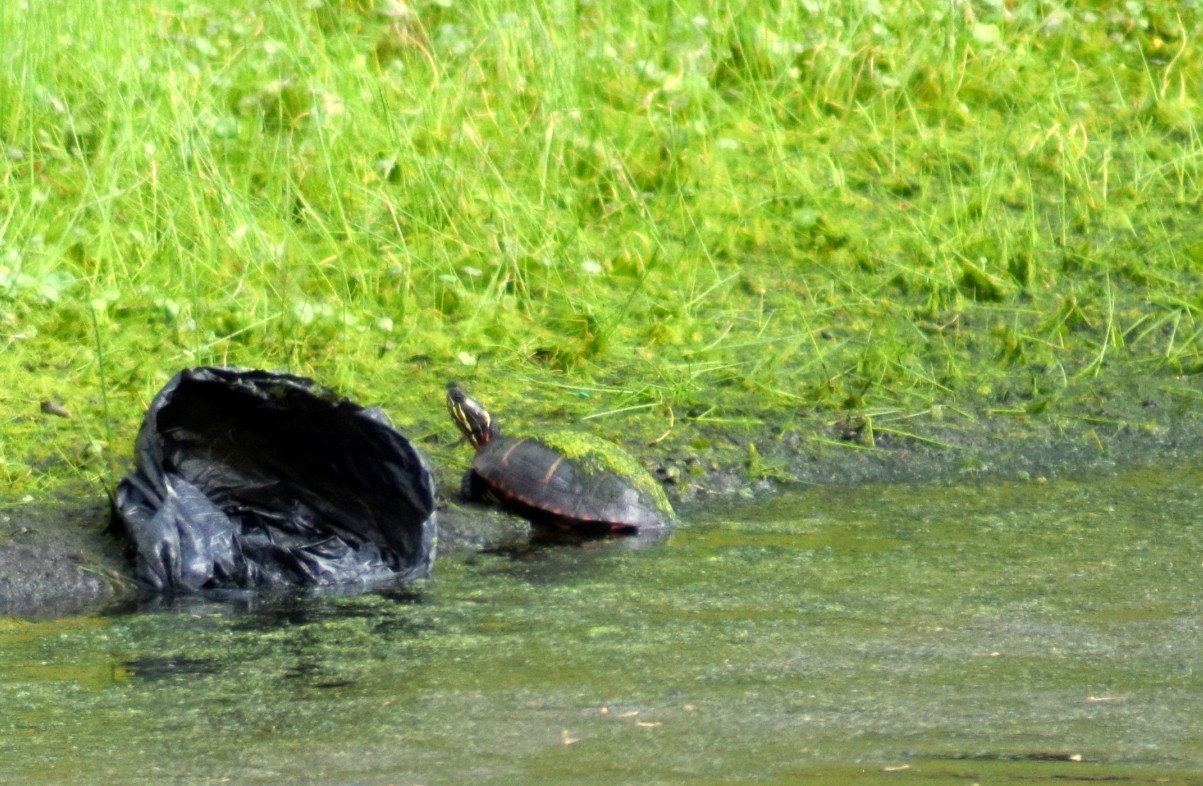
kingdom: Animalia
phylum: Chordata
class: Testudines
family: Emydidae
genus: Chrysemys
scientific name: Chrysemys picta
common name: Painted turtle
